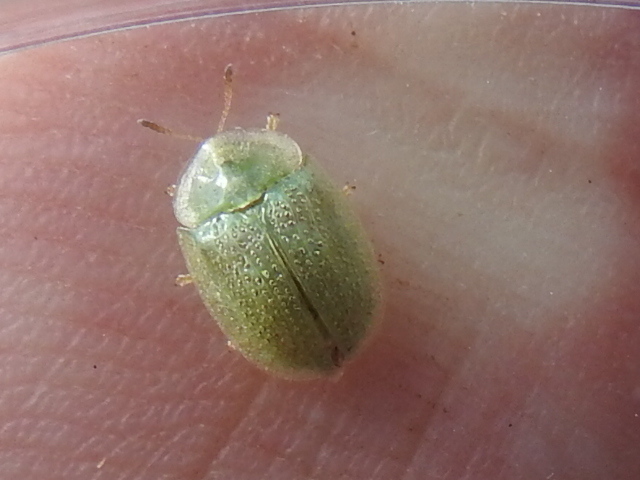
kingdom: Animalia
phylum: Arthropoda
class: Insecta
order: Coleoptera
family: Chrysomelidae
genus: Gratiana
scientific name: Gratiana pallidula
